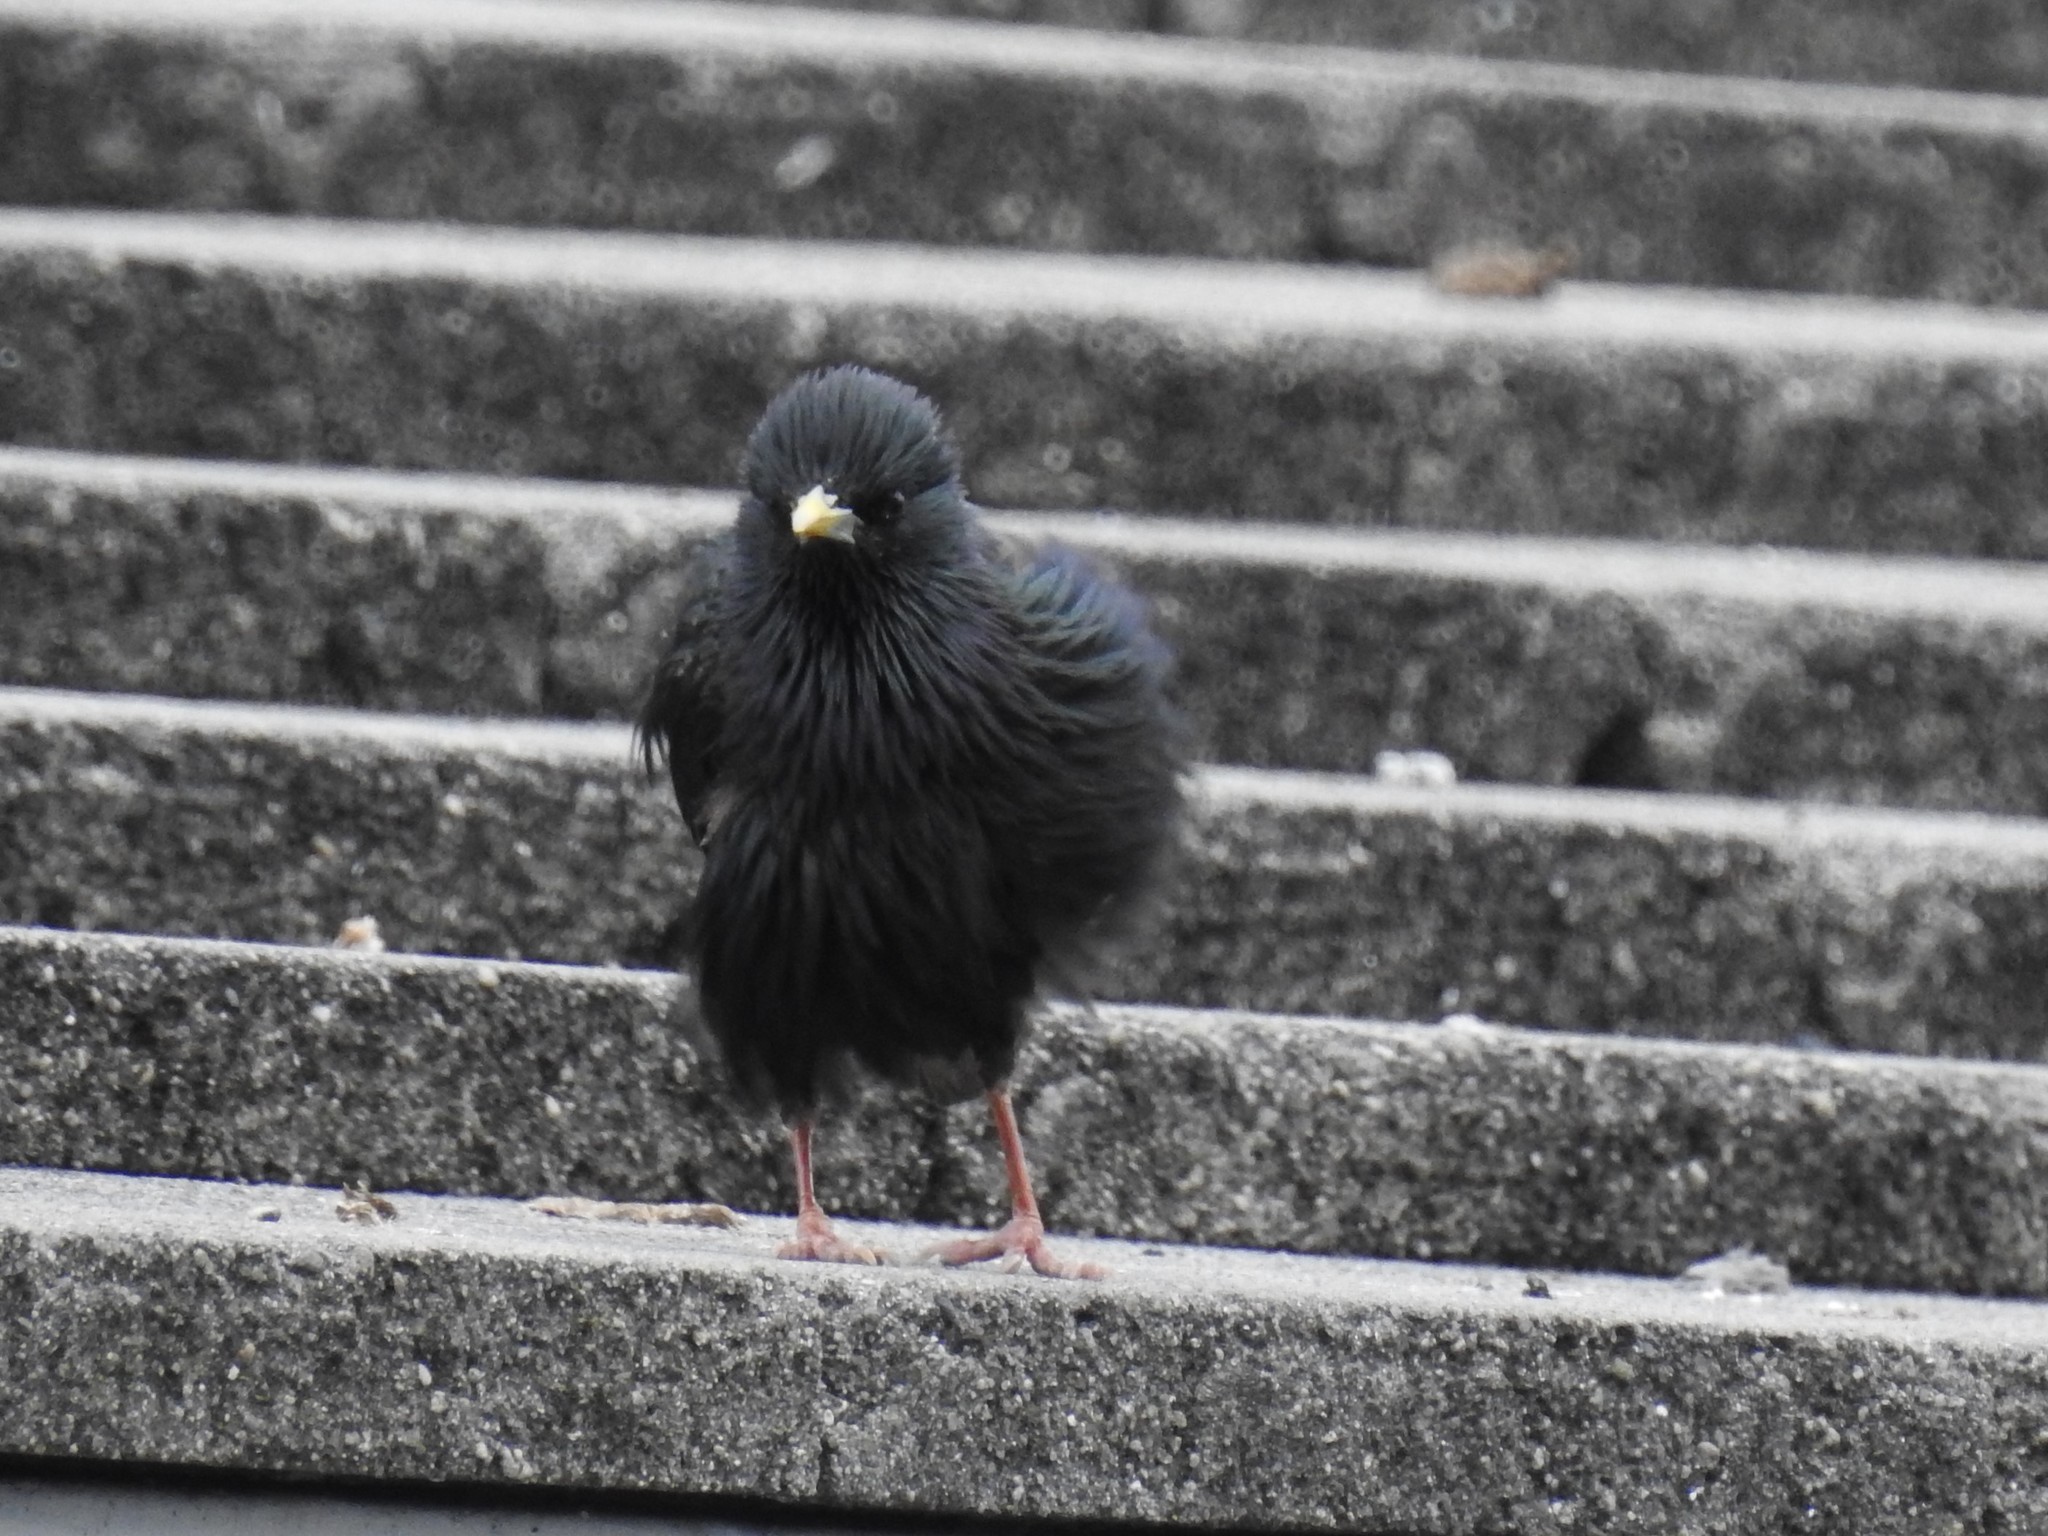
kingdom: Animalia
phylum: Chordata
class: Aves
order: Passeriformes
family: Sturnidae
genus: Sturnus
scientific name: Sturnus vulgaris
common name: Common starling
